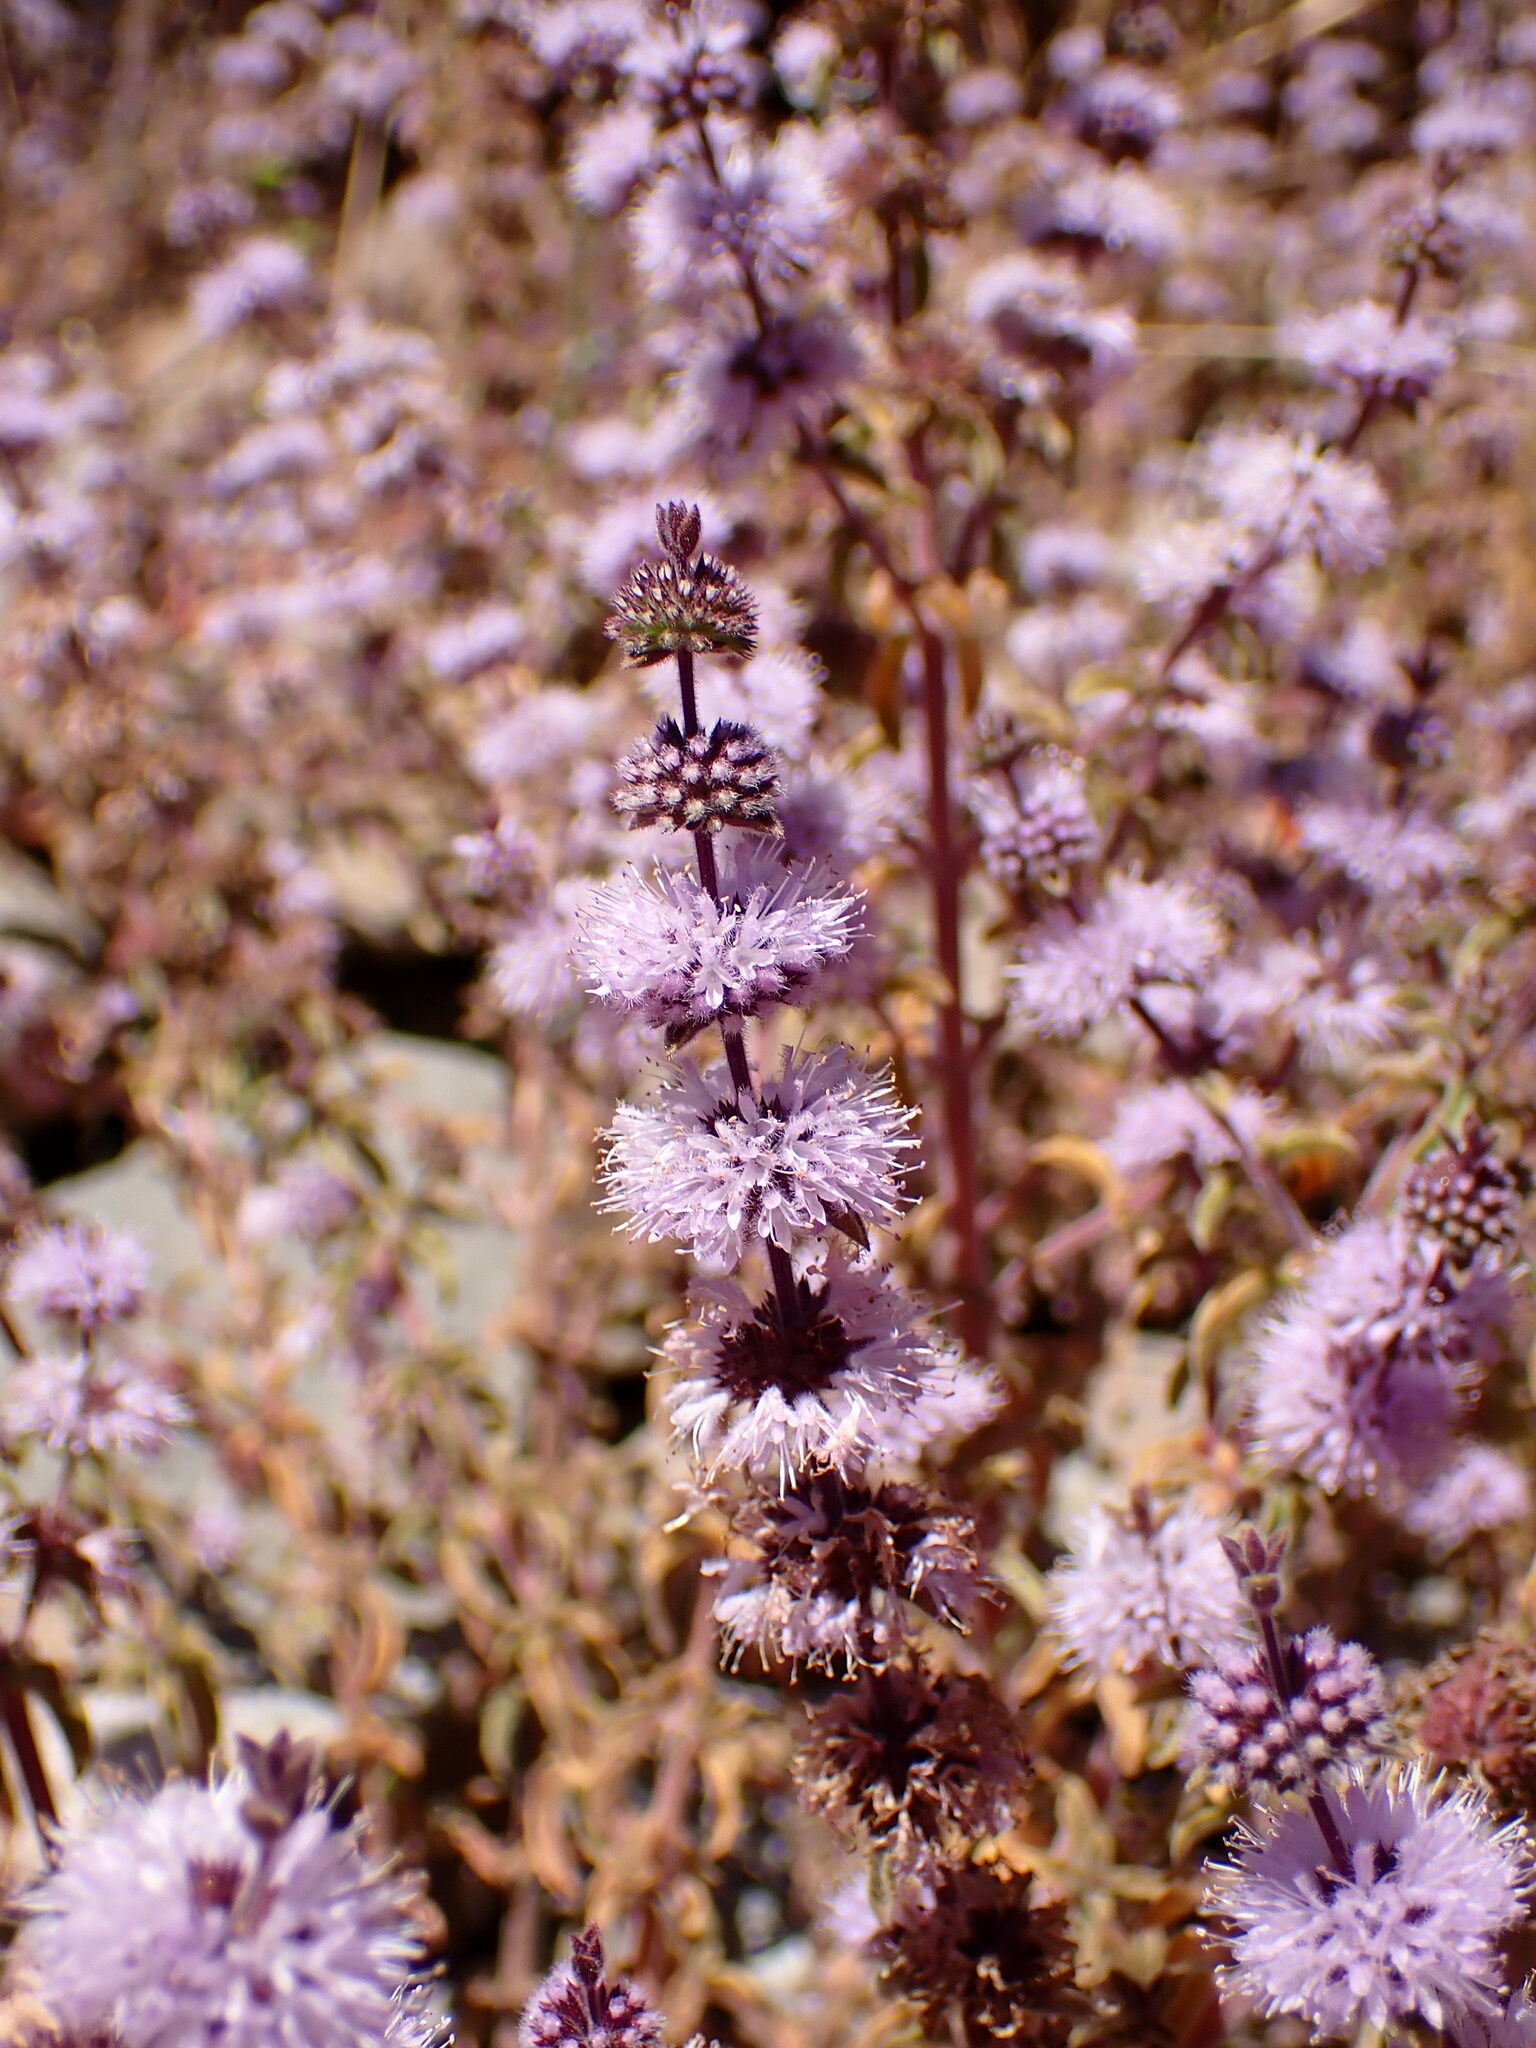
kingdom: Plantae
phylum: Tracheophyta
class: Magnoliopsida
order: Lamiales
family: Lamiaceae
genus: Mentha
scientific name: Mentha pulegium
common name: Pennyroyal
